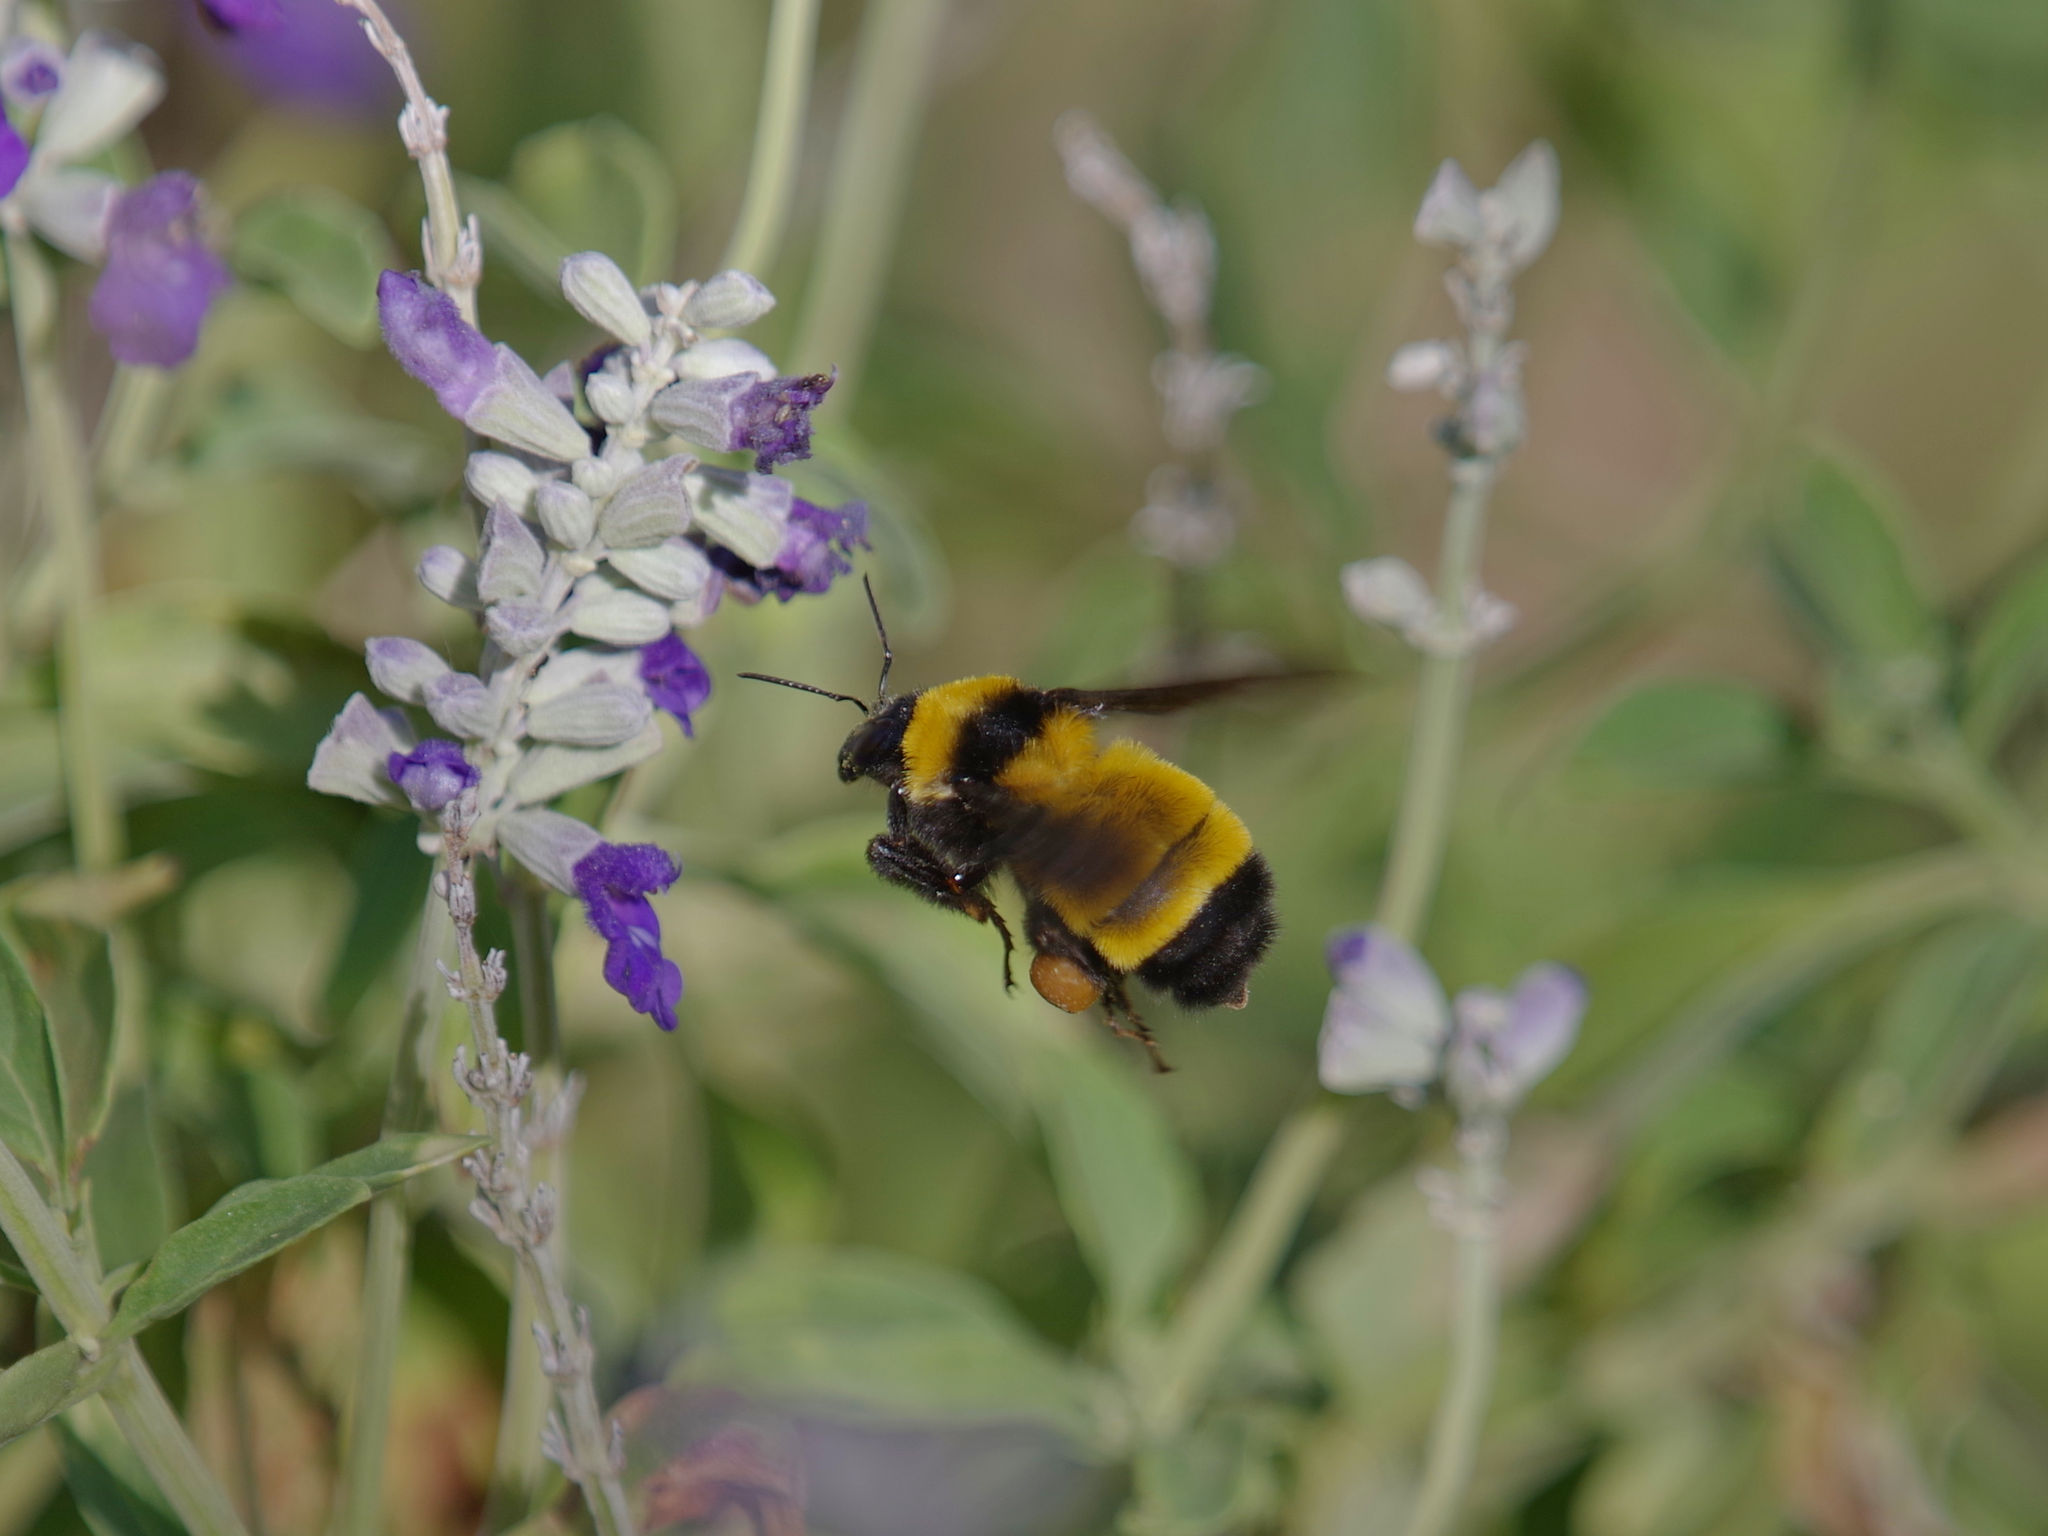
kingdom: Animalia
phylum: Arthropoda
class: Insecta
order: Hymenoptera
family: Apidae
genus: Bombus
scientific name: Bombus sonorus
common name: Sonoran bumble bee
